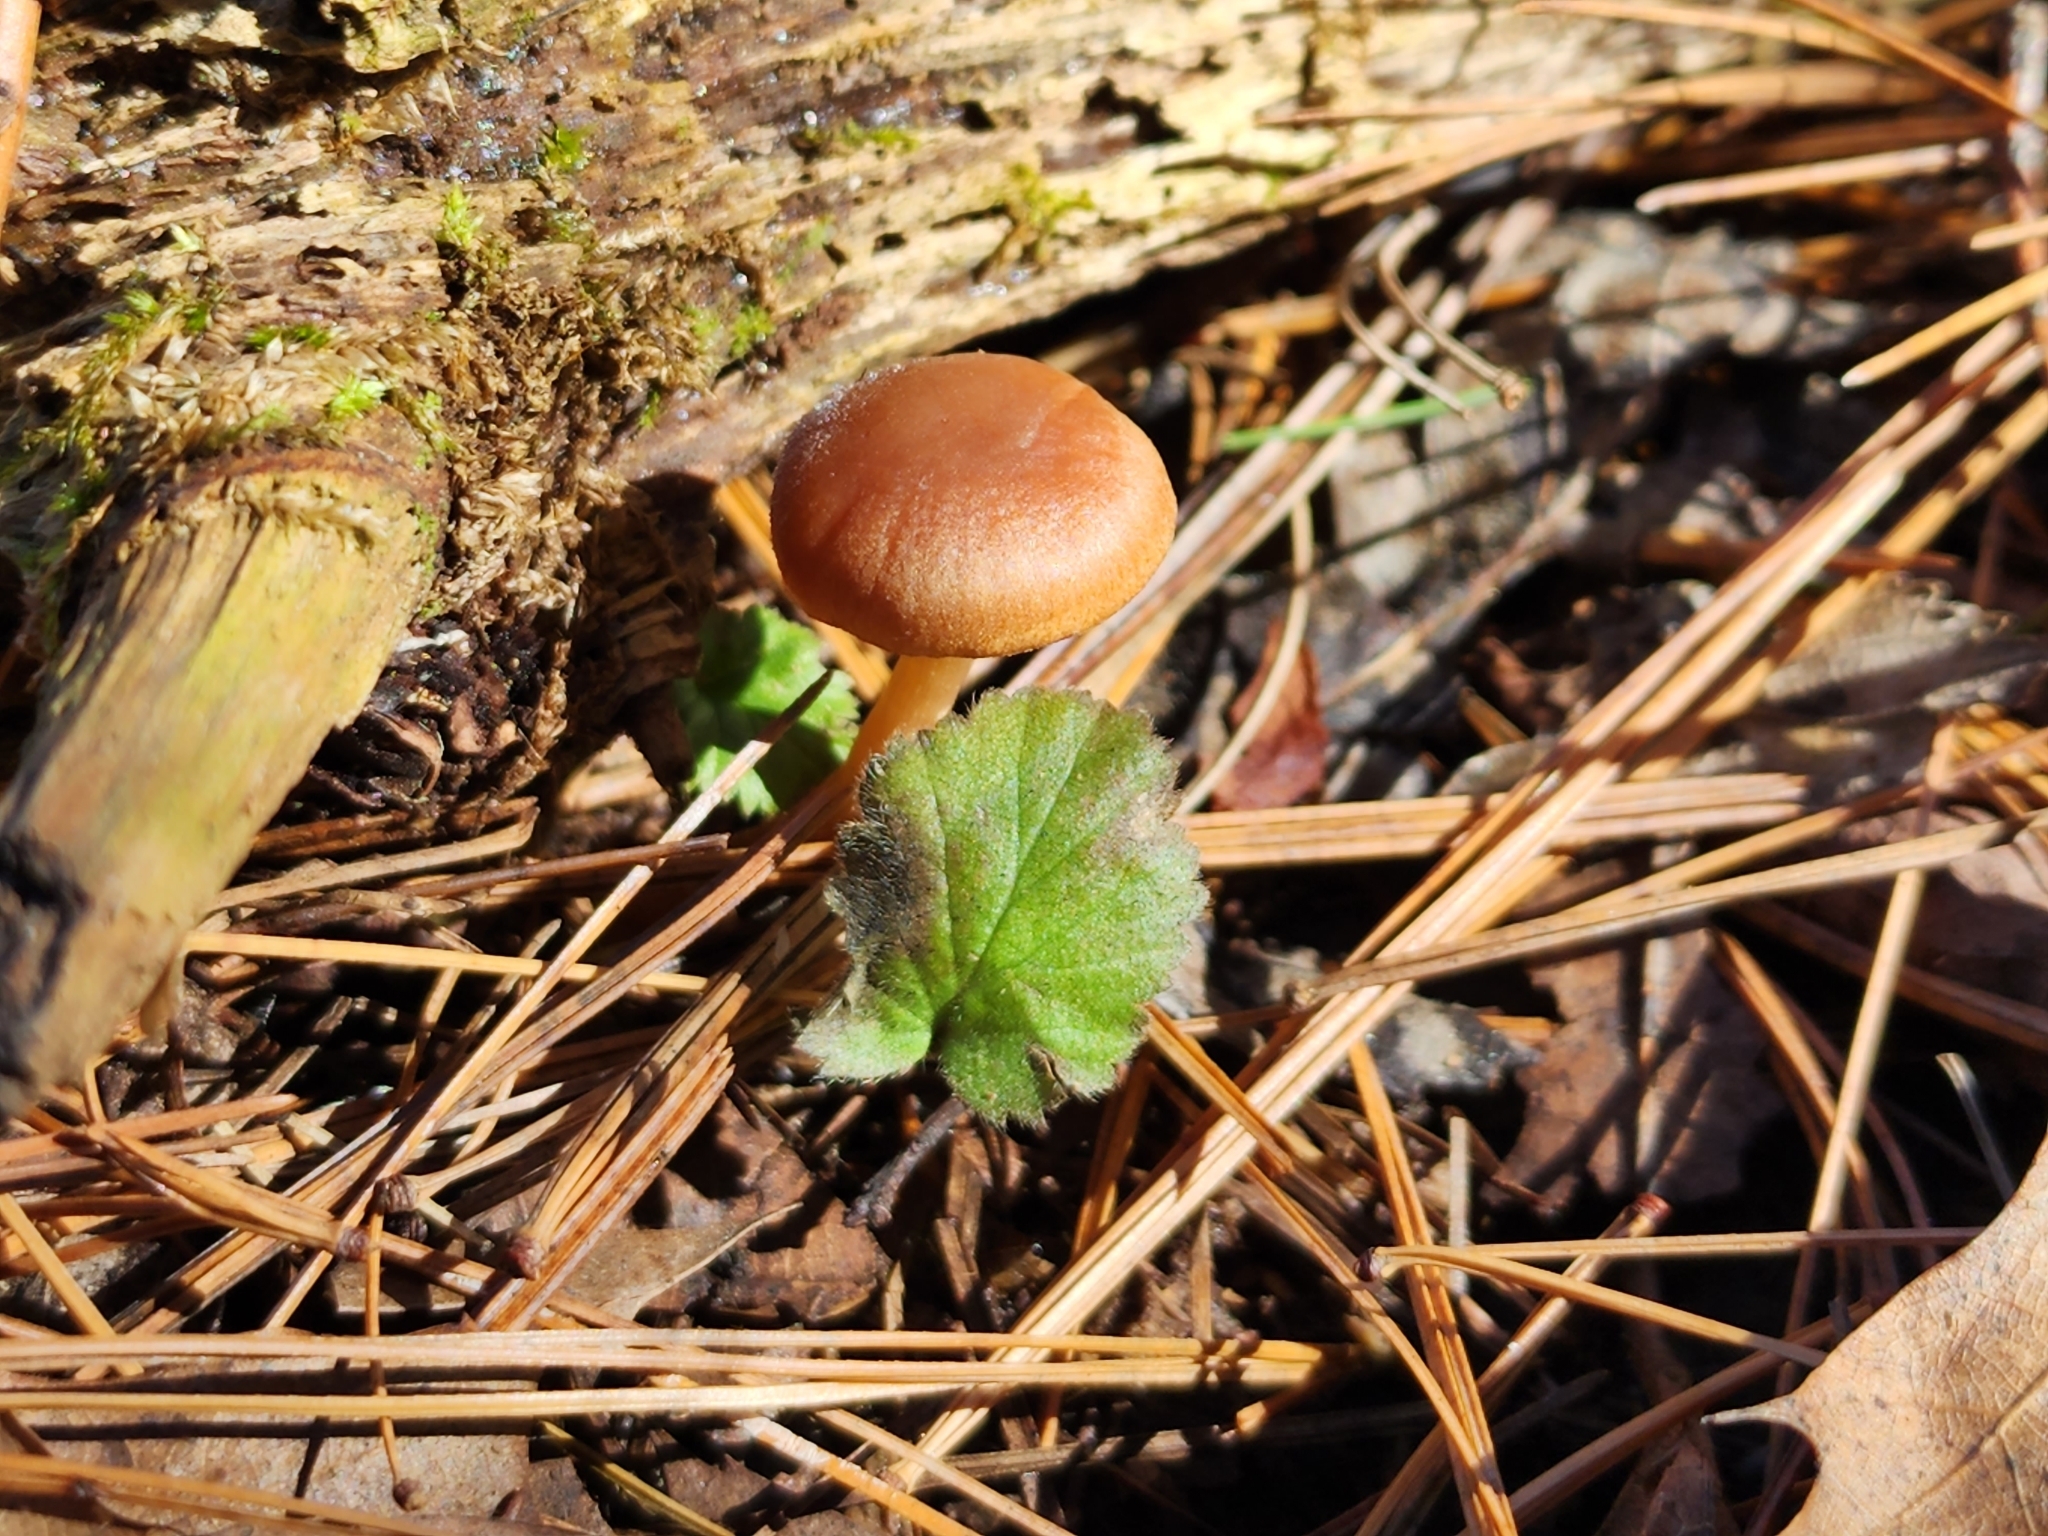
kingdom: Fungi
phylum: Basidiomycota
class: Agaricomycetes
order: Agaricales
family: Tubariaceae
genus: Tubaria
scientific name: Tubaria furfuracea
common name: Scurfy twiglet
